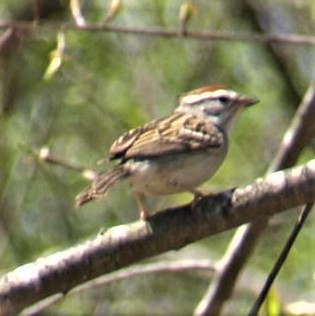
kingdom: Animalia
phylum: Chordata
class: Aves
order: Passeriformes
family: Passerellidae
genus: Spizella
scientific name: Spizella passerina
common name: Chipping sparrow
